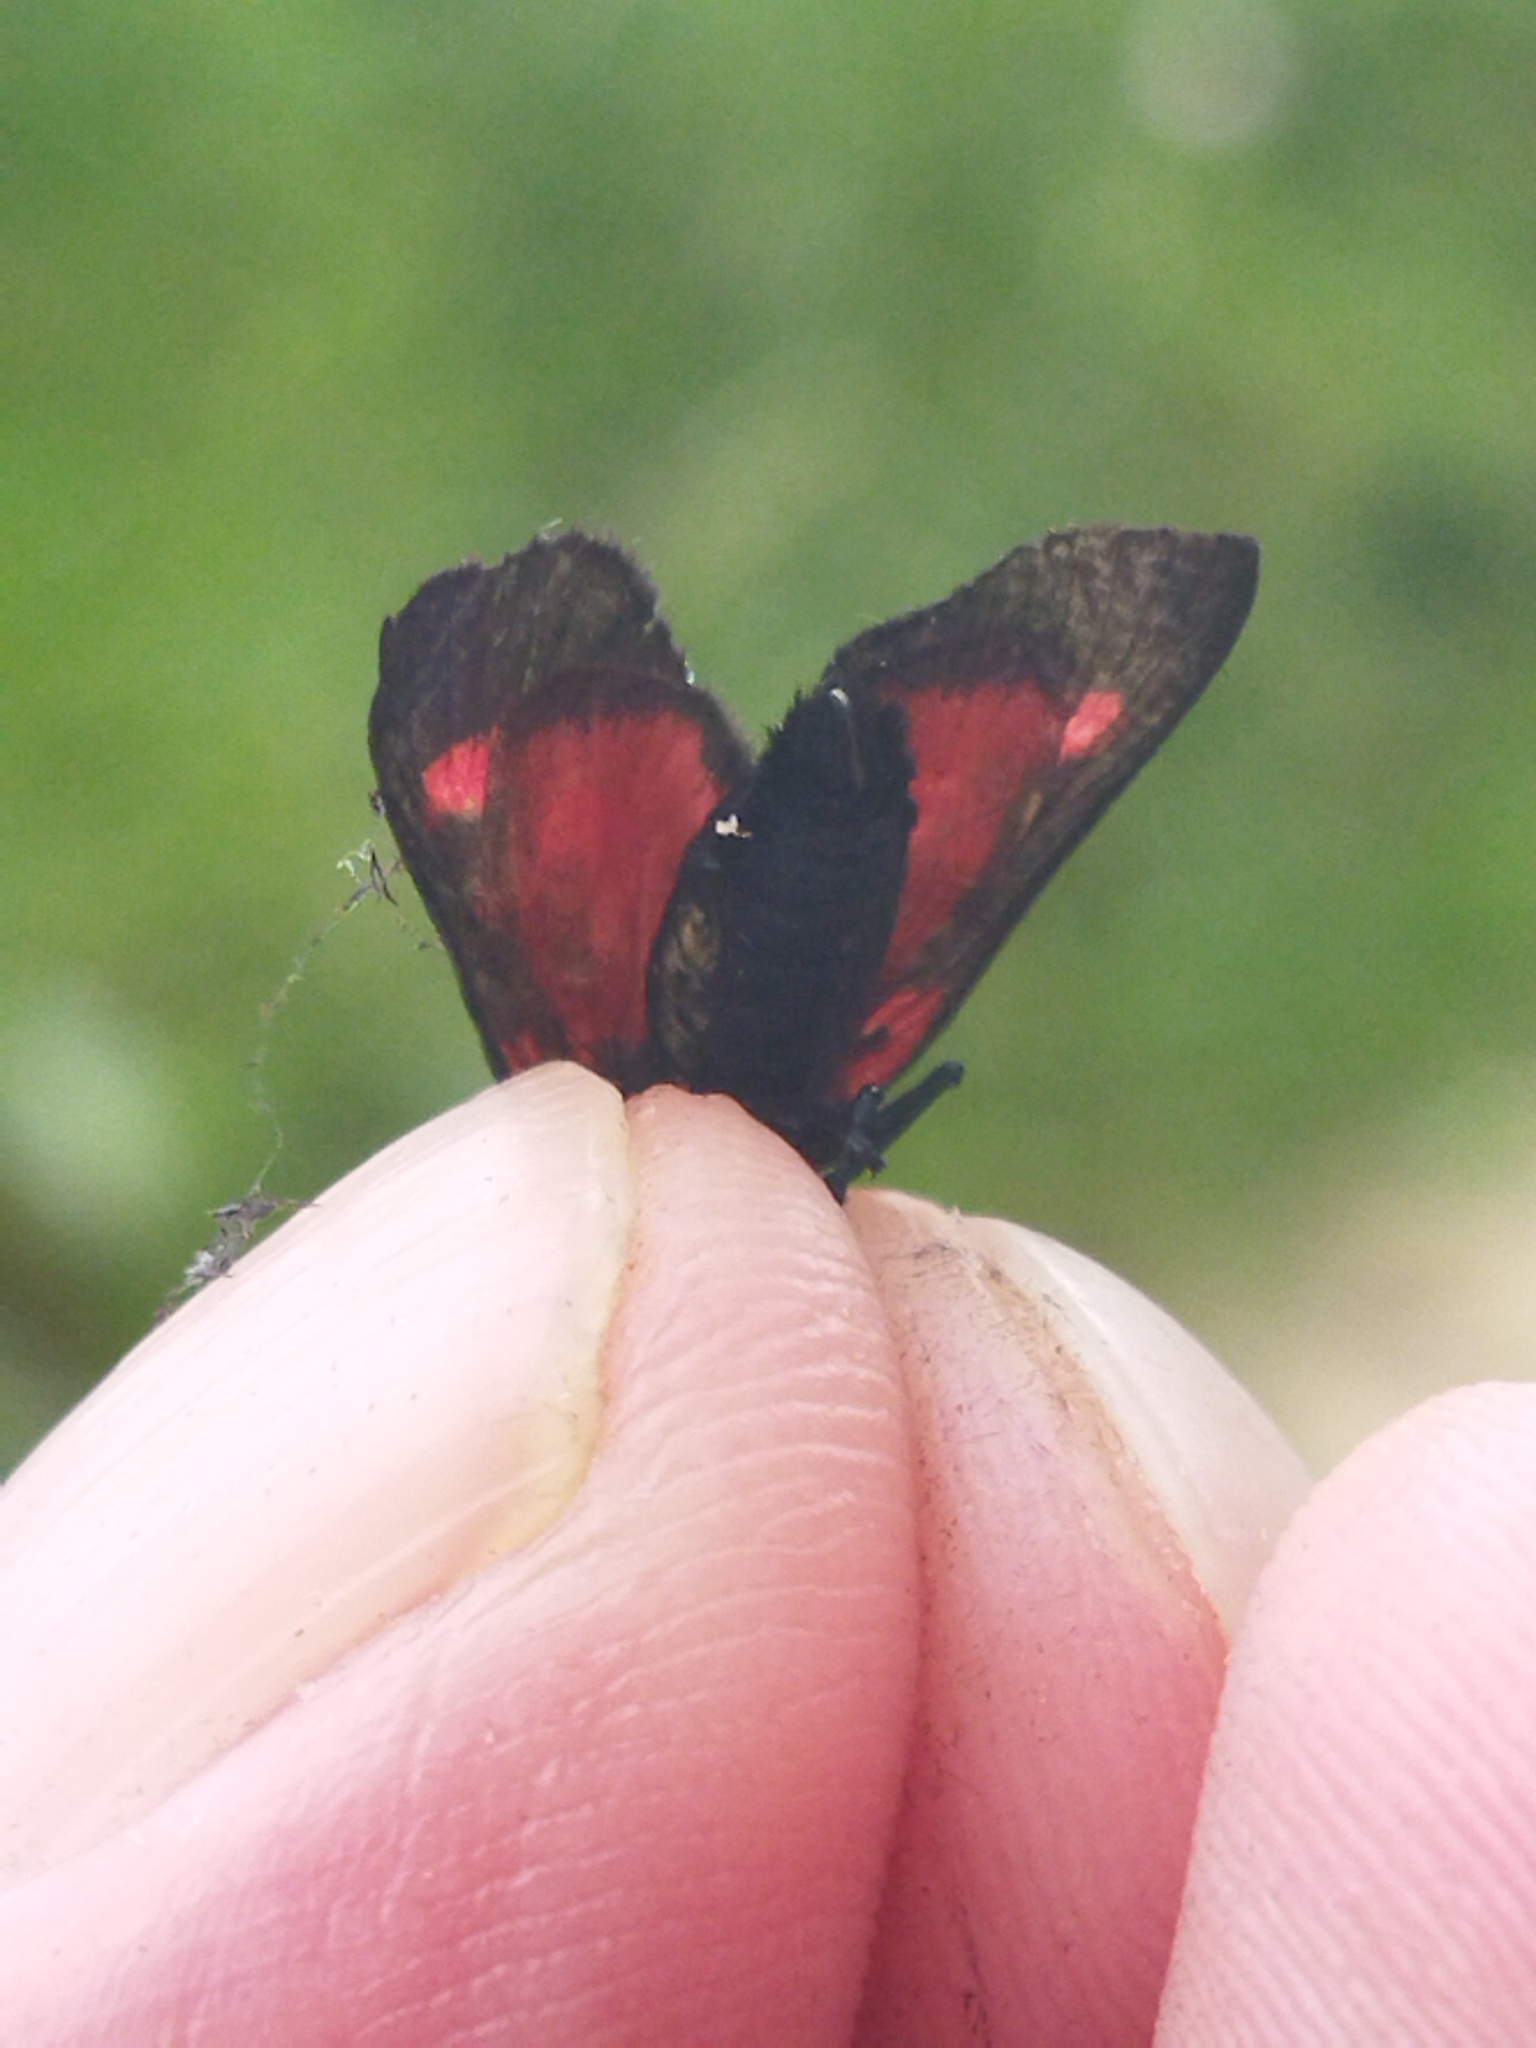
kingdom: Animalia
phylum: Arthropoda
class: Insecta
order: Lepidoptera
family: Zygaenidae
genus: Zygaena
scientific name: Zygaena viciae
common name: New forest burnet
